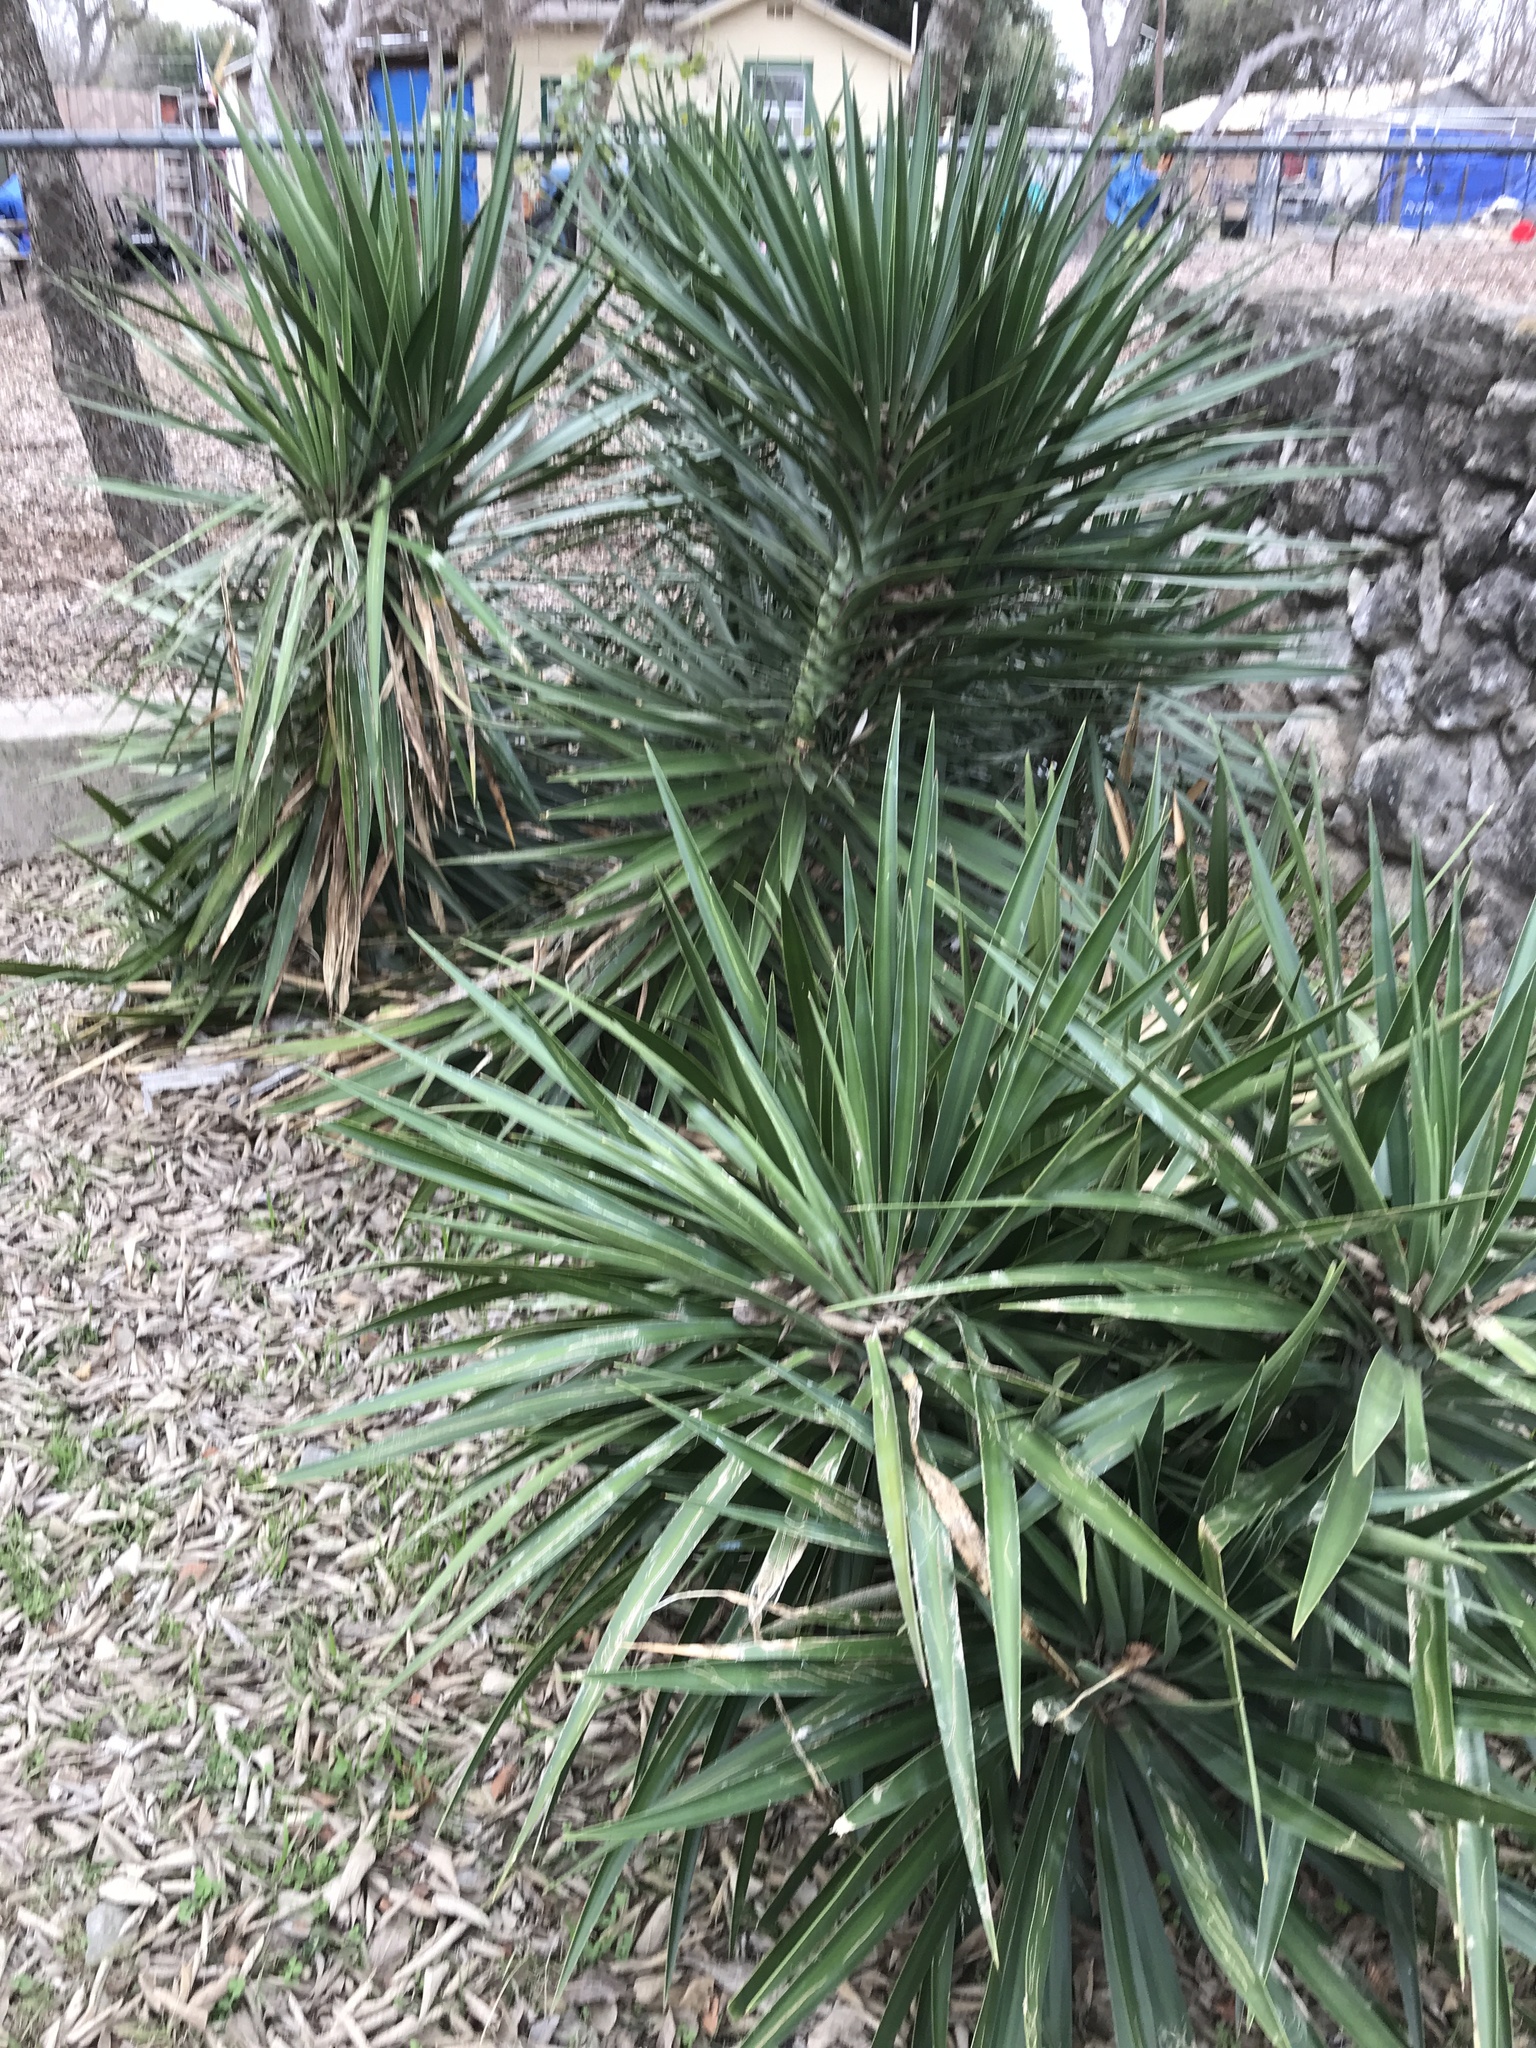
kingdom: Plantae
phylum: Tracheophyta
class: Liliopsida
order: Asparagales
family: Asparagaceae
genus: Yucca
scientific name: Yucca aloifolia
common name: Aloe yucca
